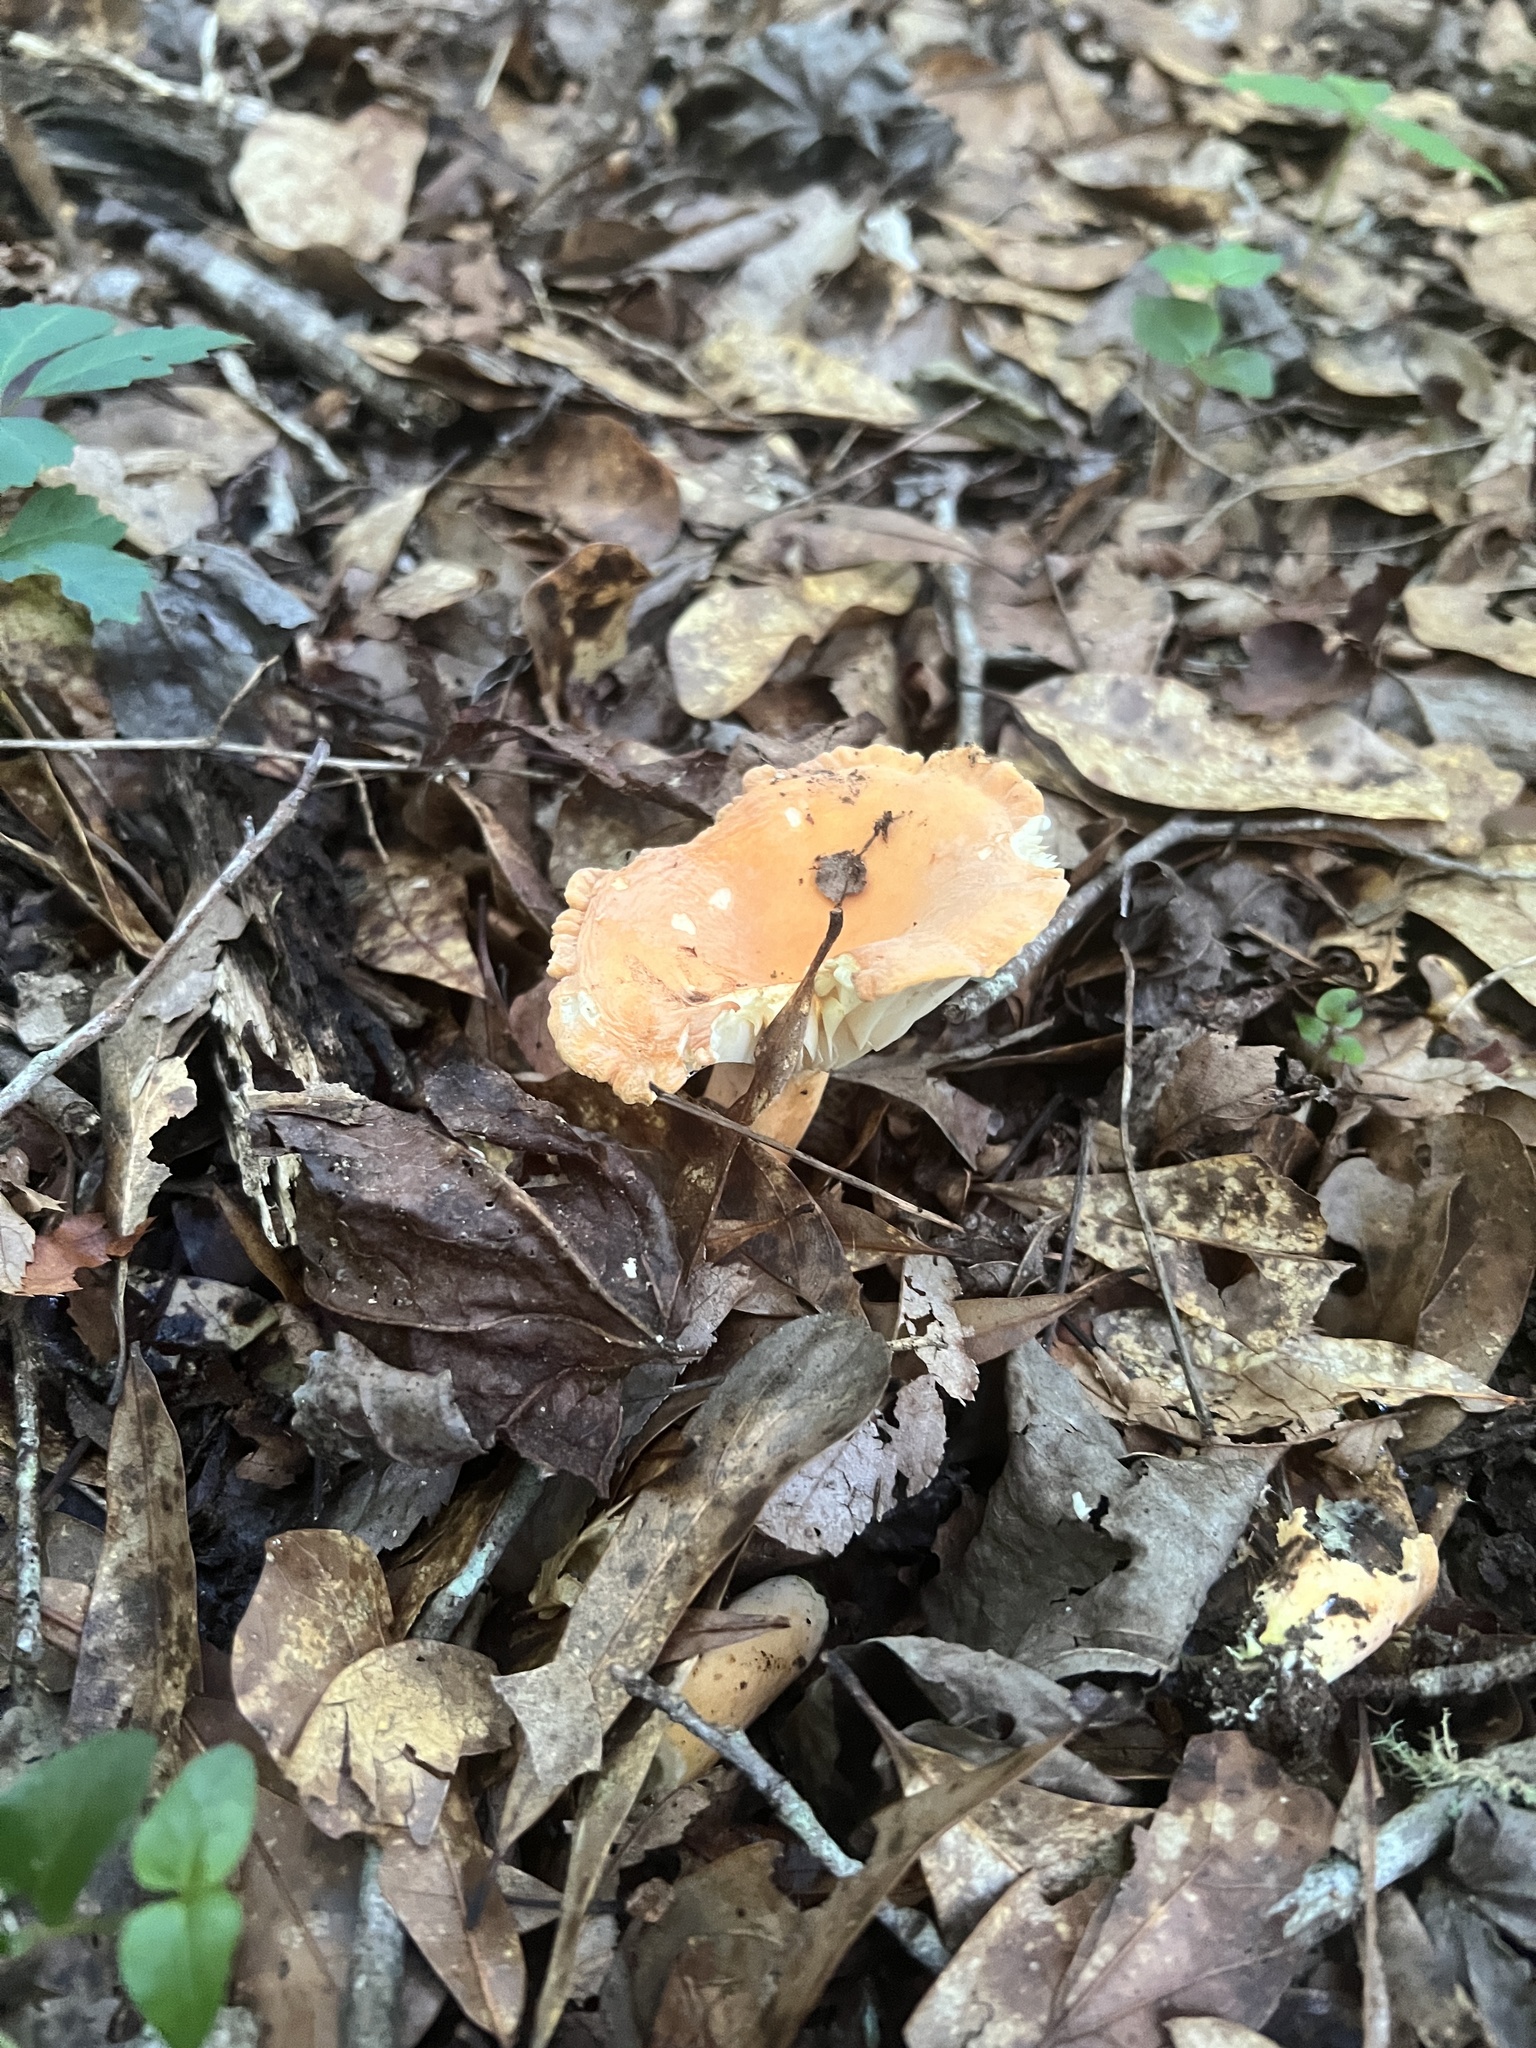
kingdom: Fungi
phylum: Basidiomycota
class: Agaricomycetes
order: Russulales
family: Russulaceae
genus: Lactarius
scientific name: Lactarius hygrophoroides
